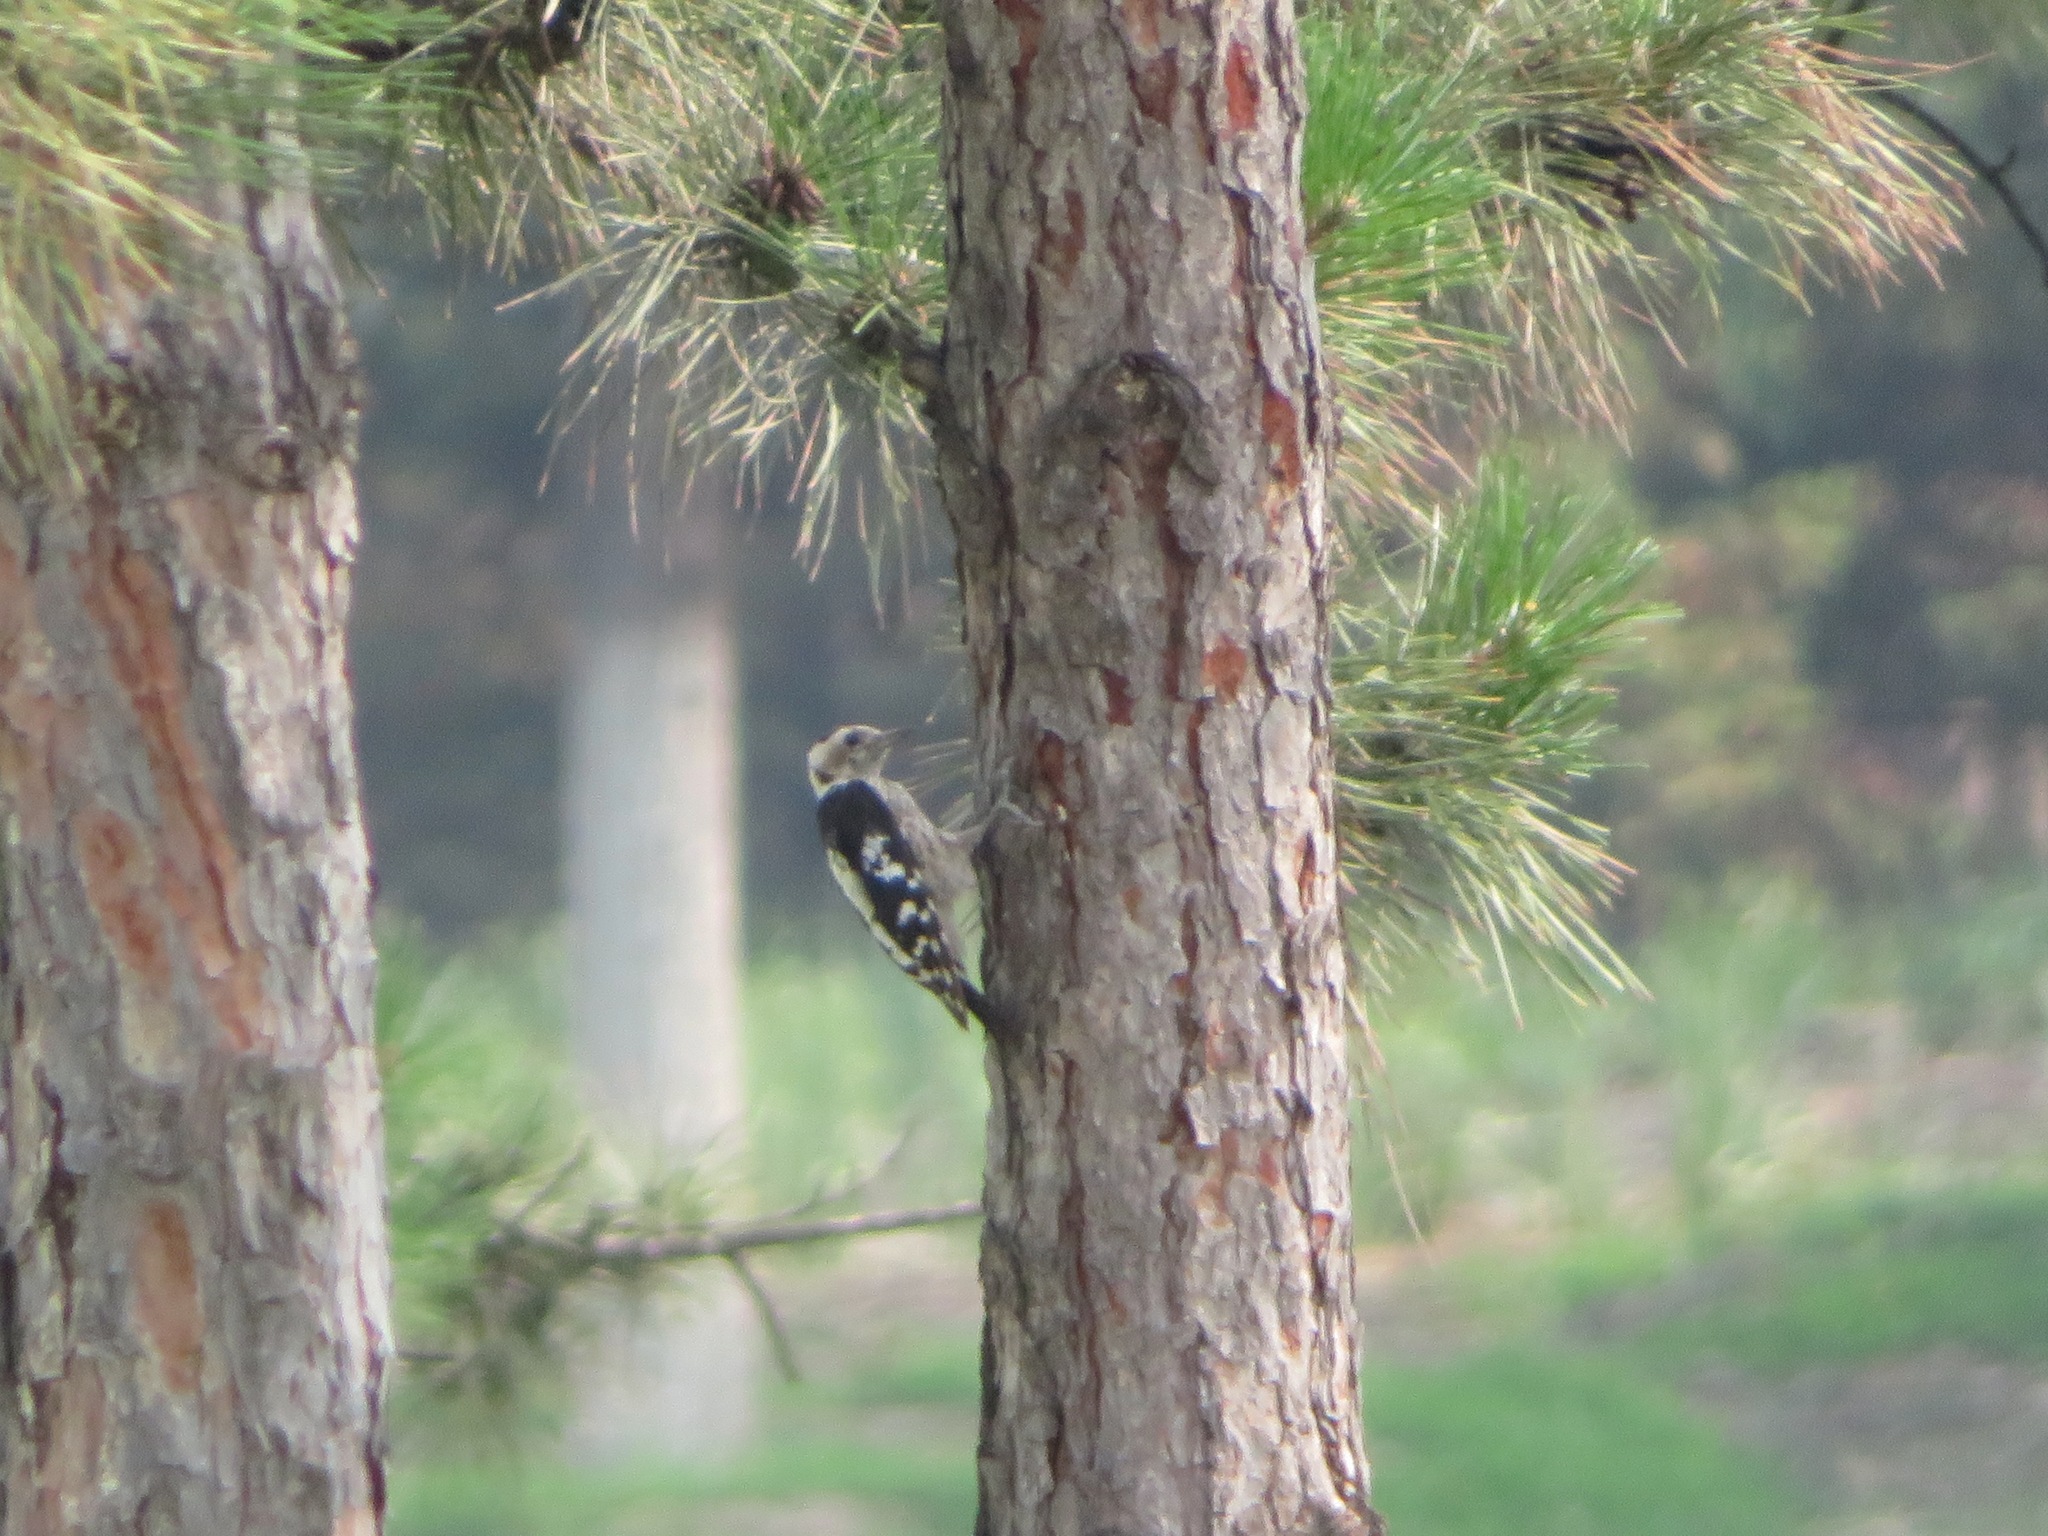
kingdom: Animalia
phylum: Chordata
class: Aves
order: Piciformes
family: Picidae
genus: Yungipicus
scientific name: Yungipicus canicapillus
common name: Grey-capped pygmy woodpecker
